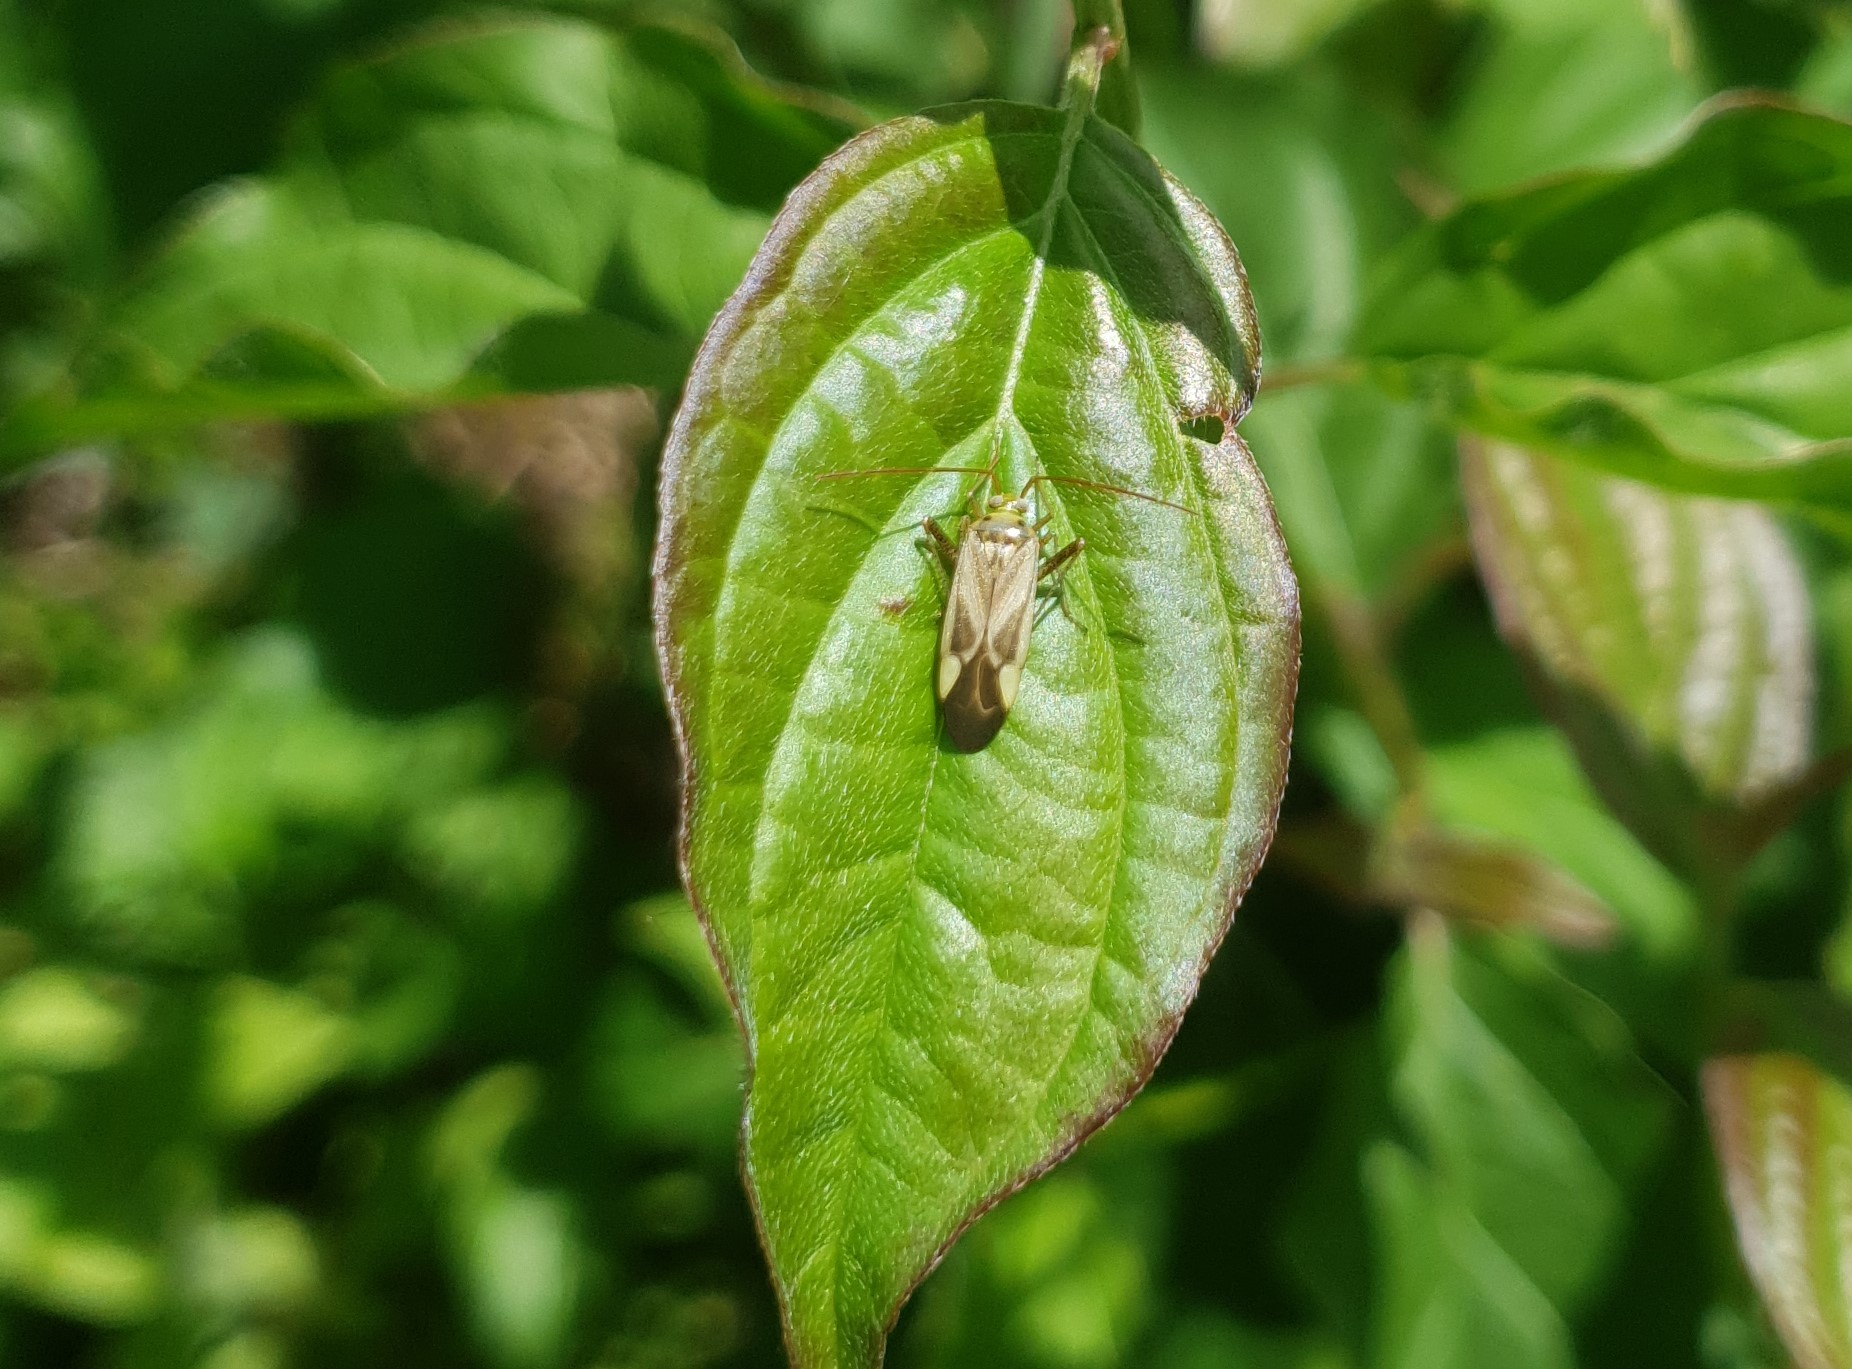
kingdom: Animalia
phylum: Arthropoda
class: Insecta
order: Hemiptera
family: Miridae
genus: Adelphocoris
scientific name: Adelphocoris lineolatus
